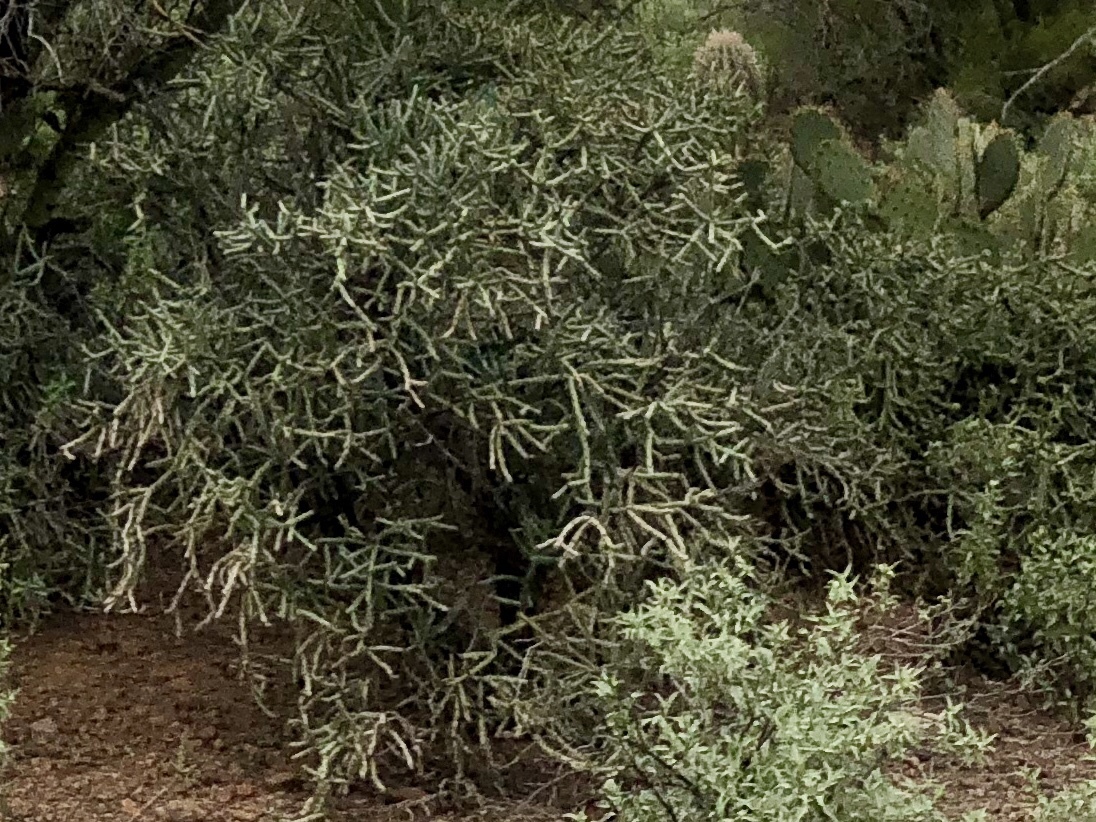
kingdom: Plantae
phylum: Tracheophyta
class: Magnoliopsida
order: Caryophyllales
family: Cactaceae
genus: Cylindropuntia
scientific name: Cylindropuntia arbuscula
